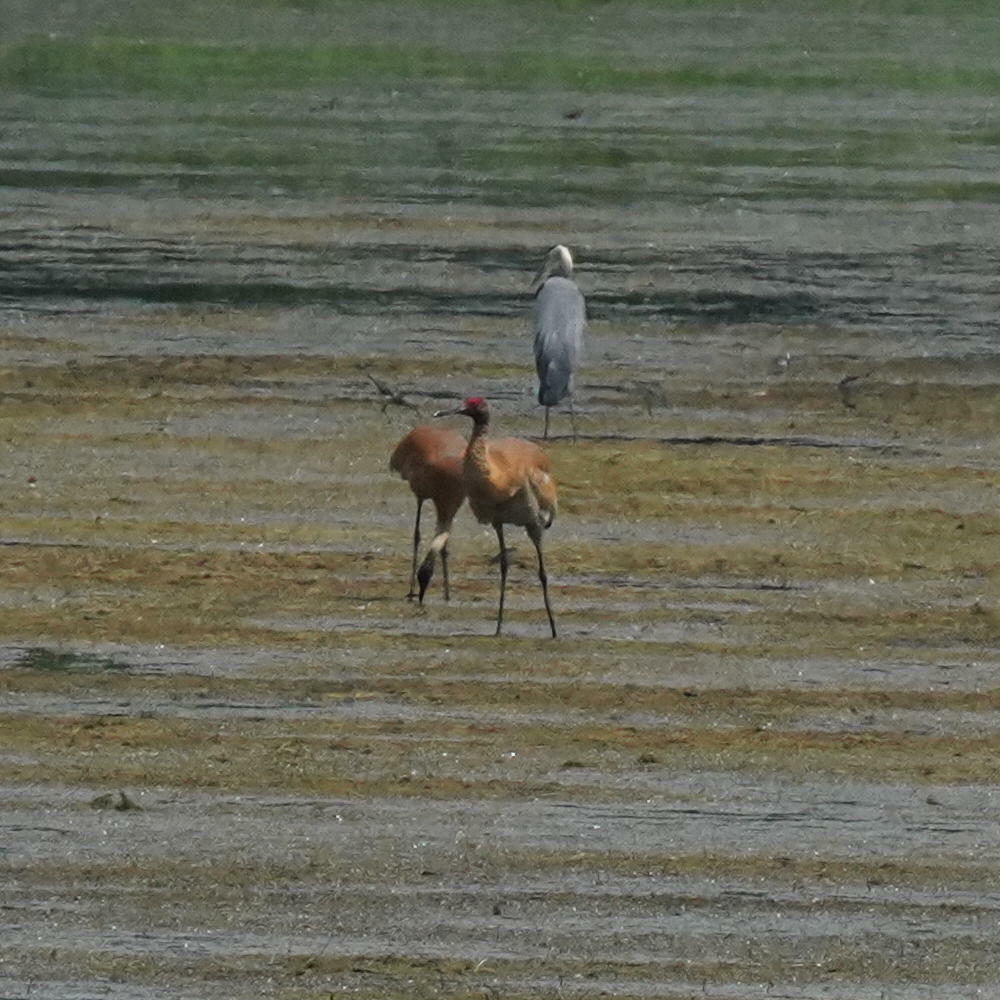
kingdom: Animalia
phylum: Chordata
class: Aves
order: Gruiformes
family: Gruidae
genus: Grus
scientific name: Grus canadensis
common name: Sandhill crane
